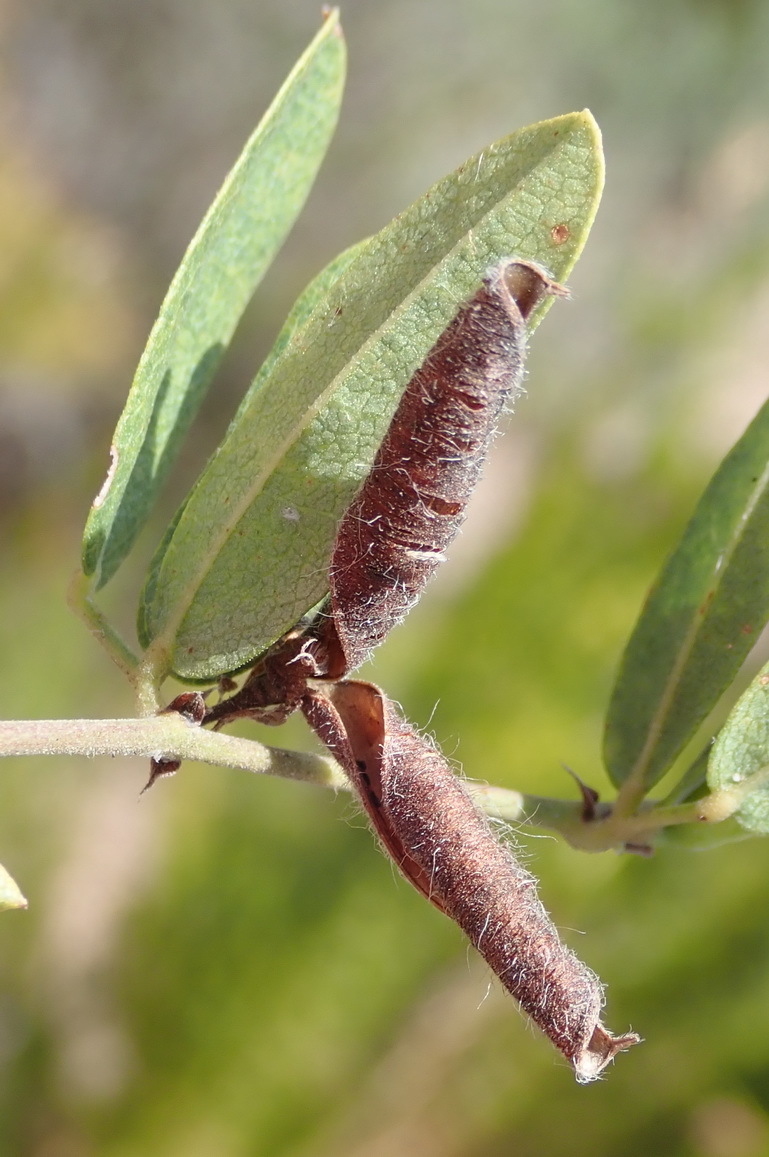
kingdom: Plantae
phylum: Tracheophyta
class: Magnoliopsida
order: Fabales
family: Fabaceae
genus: Rhynchosia
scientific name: Rhynchosia ciliata
